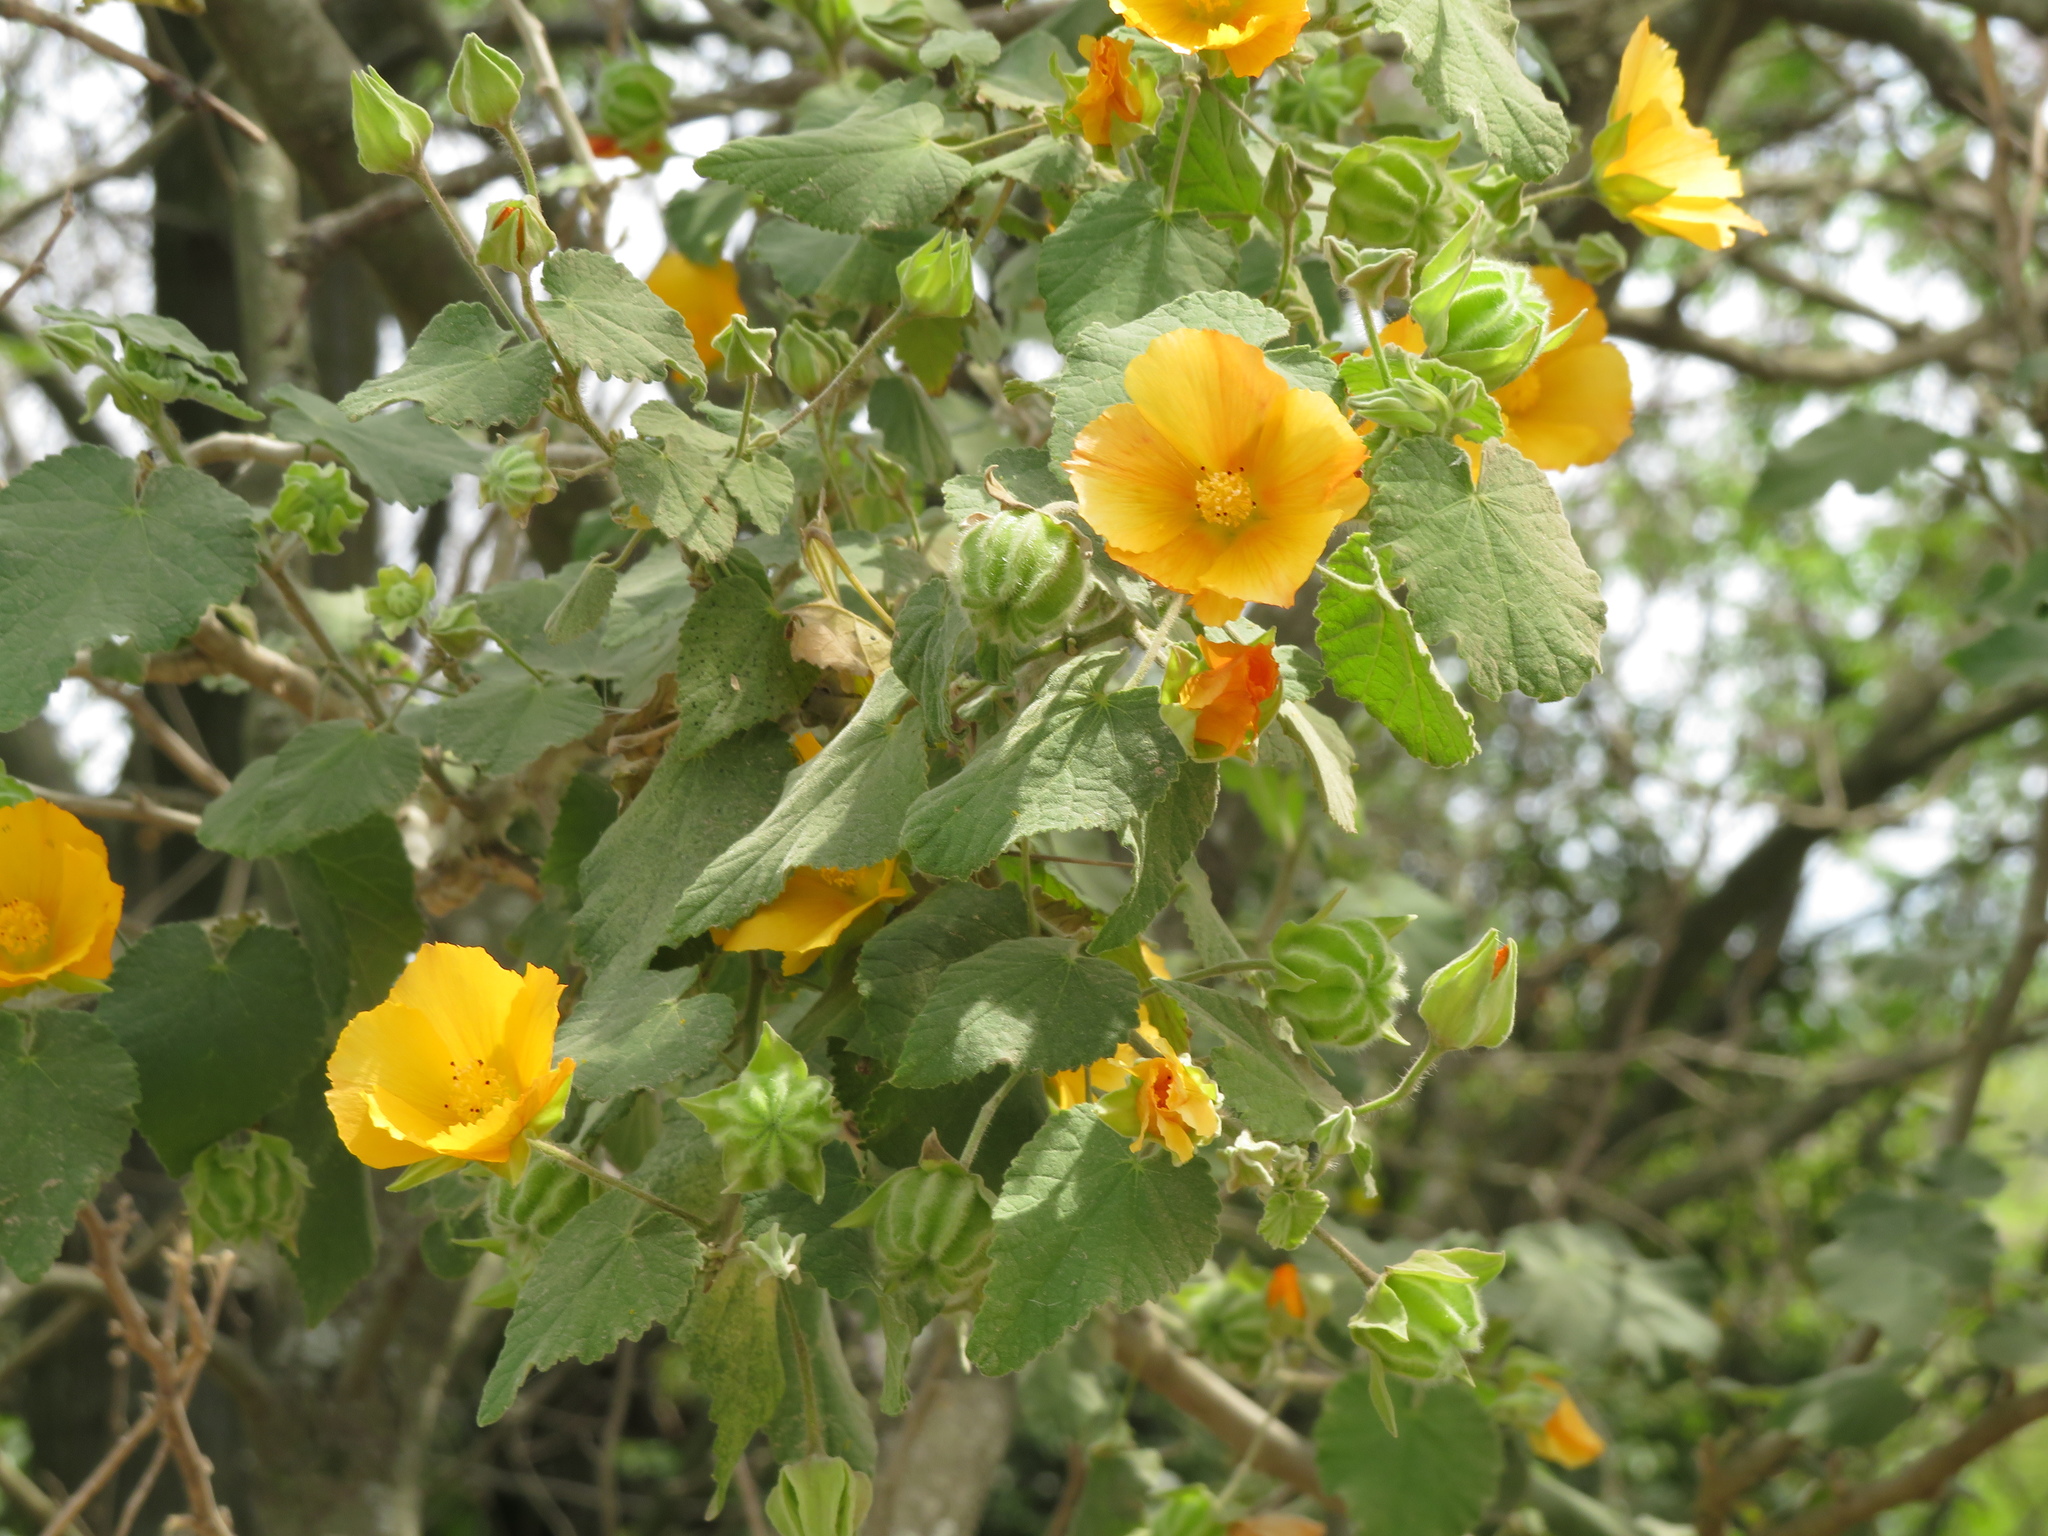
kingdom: Plantae
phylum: Tracheophyta
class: Magnoliopsida
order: Malvales
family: Malvaceae
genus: Abutilon
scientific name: Abutilon grandifolium
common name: Hairy abutilon
